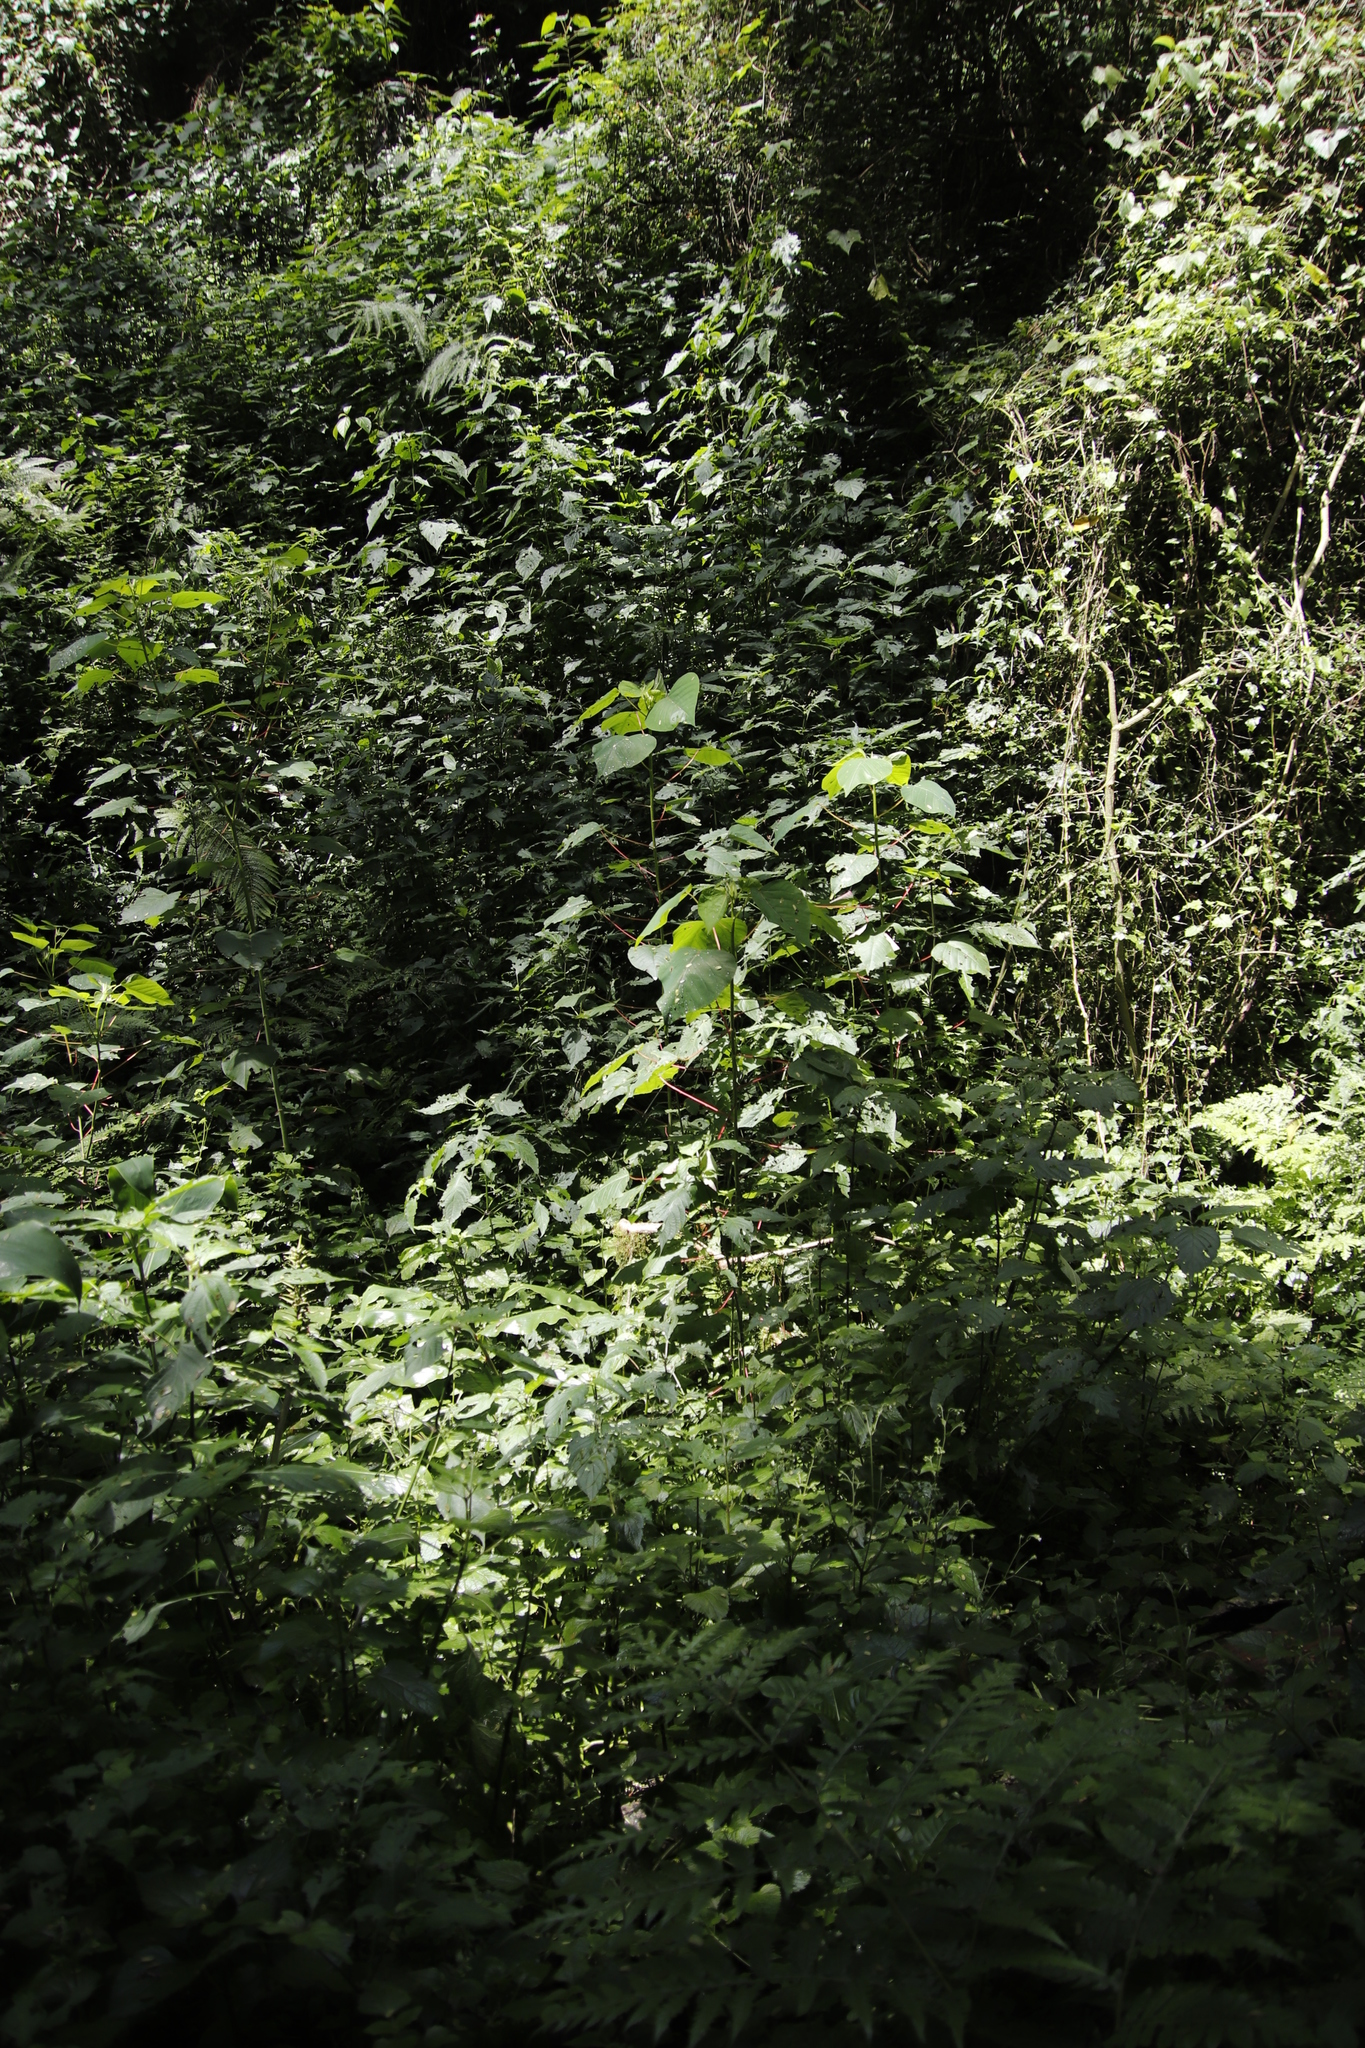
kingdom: Plantae
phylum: Tracheophyta
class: Magnoliopsida
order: Malpighiales
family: Euphorbiaceae
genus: Homalanthus
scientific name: Homalanthus populifolius
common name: Queensland poplar
